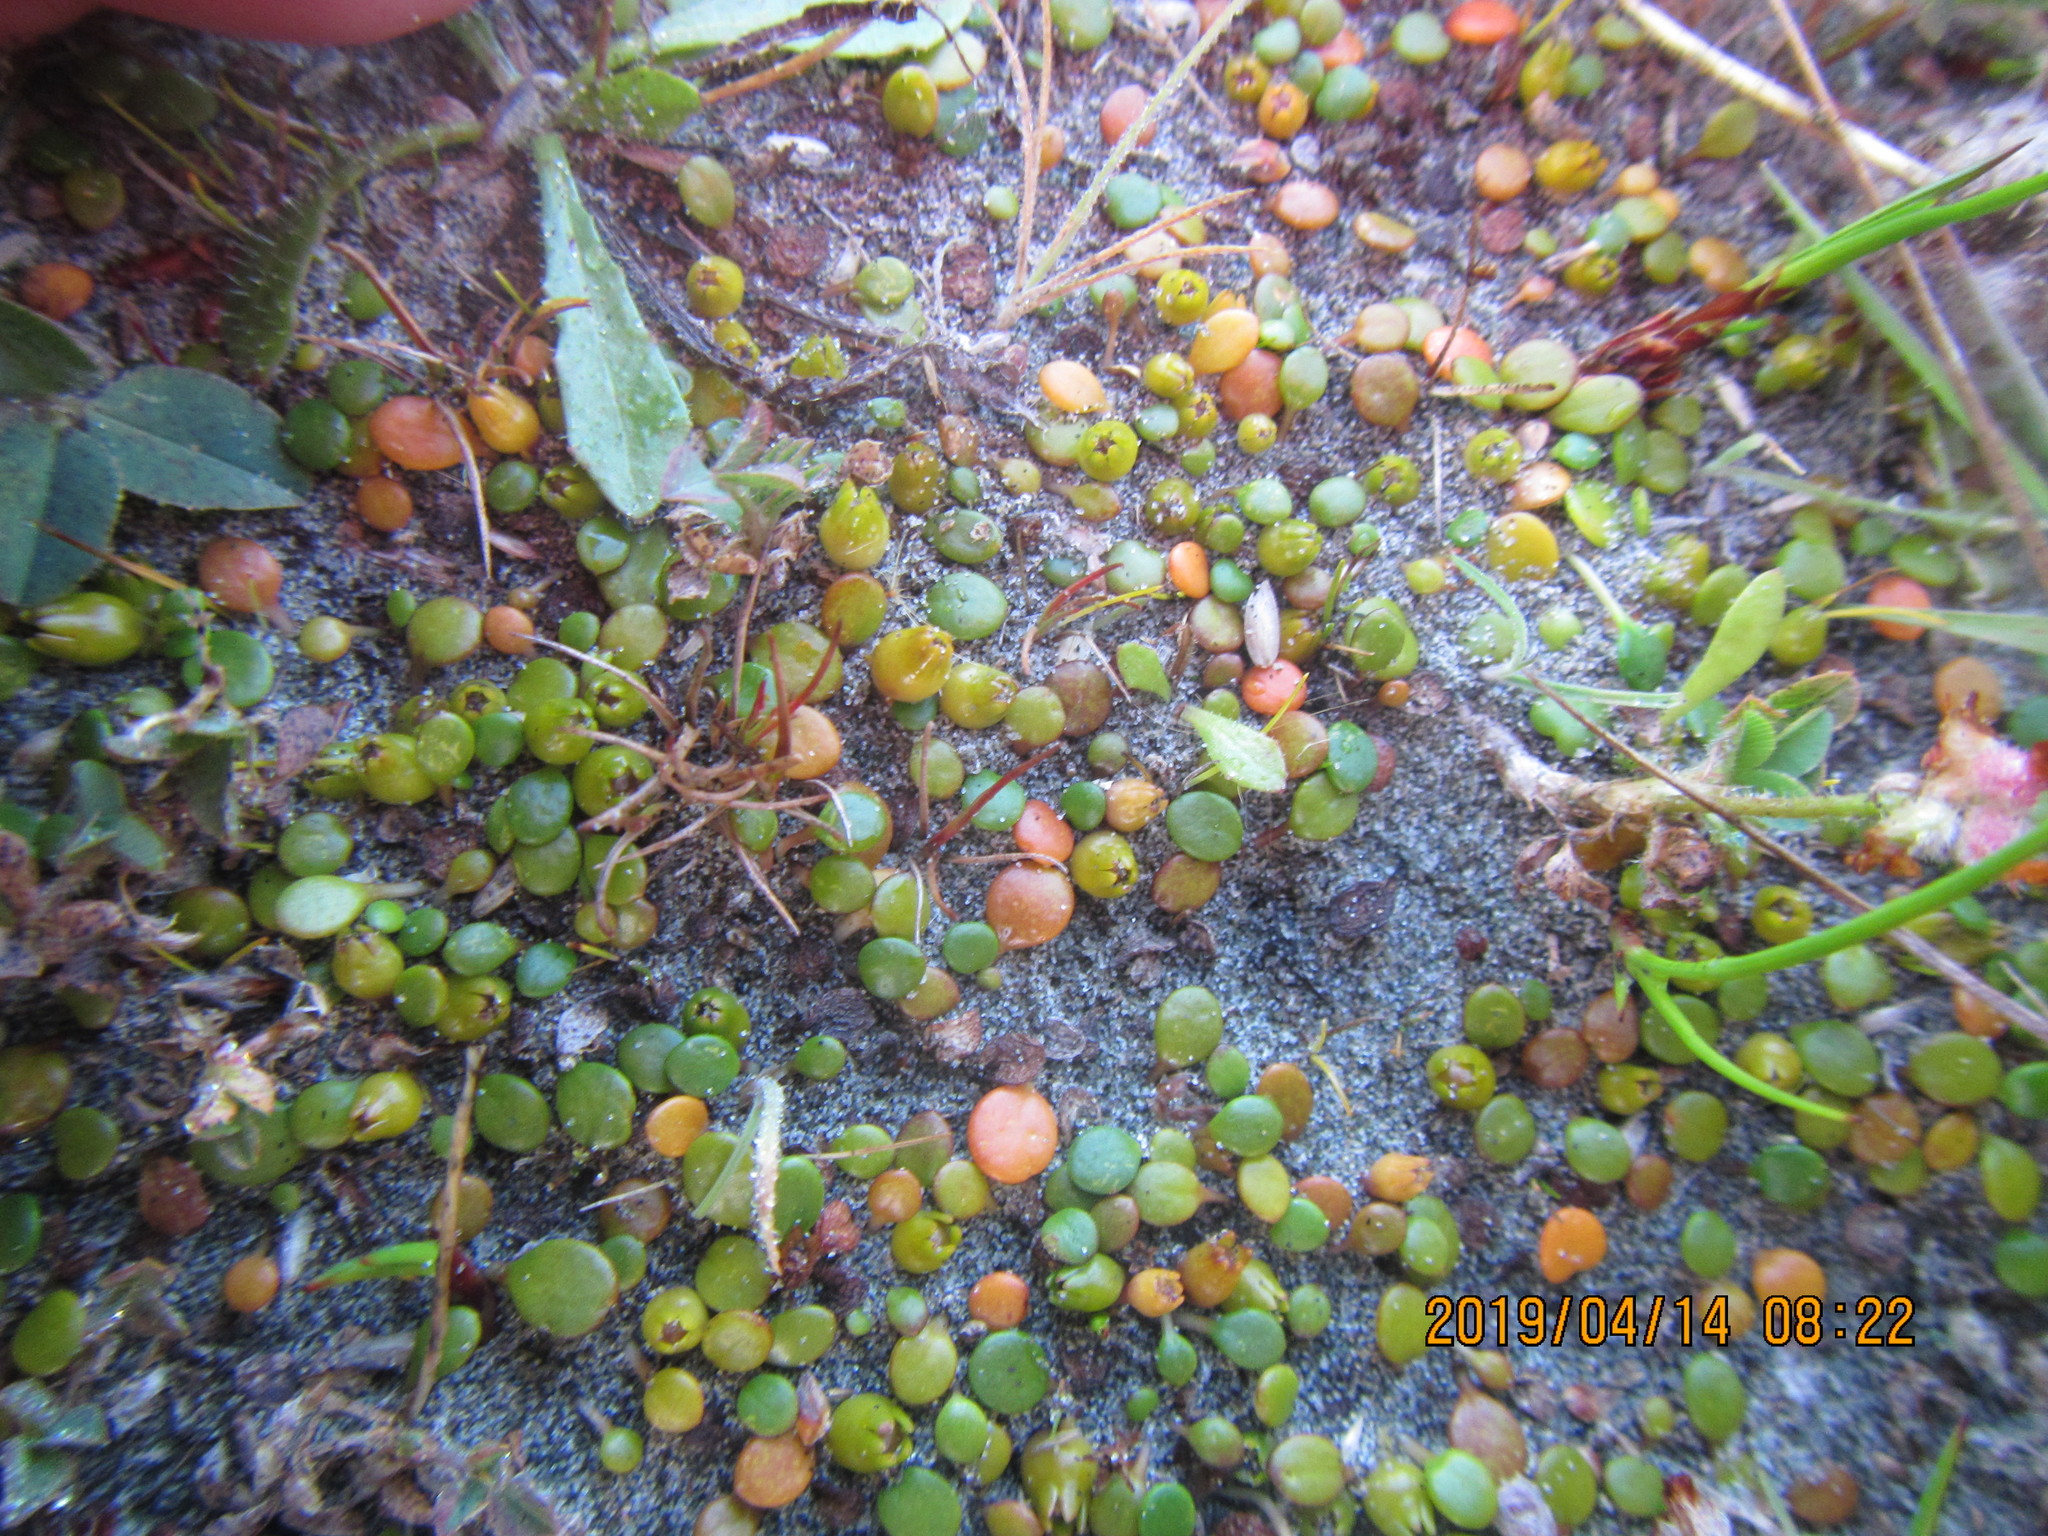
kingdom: Plantae
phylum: Tracheophyta
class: Magnoliopsida
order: Asterales
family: Goodeniaceae
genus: Goodenia
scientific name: Goodenia heenanii
